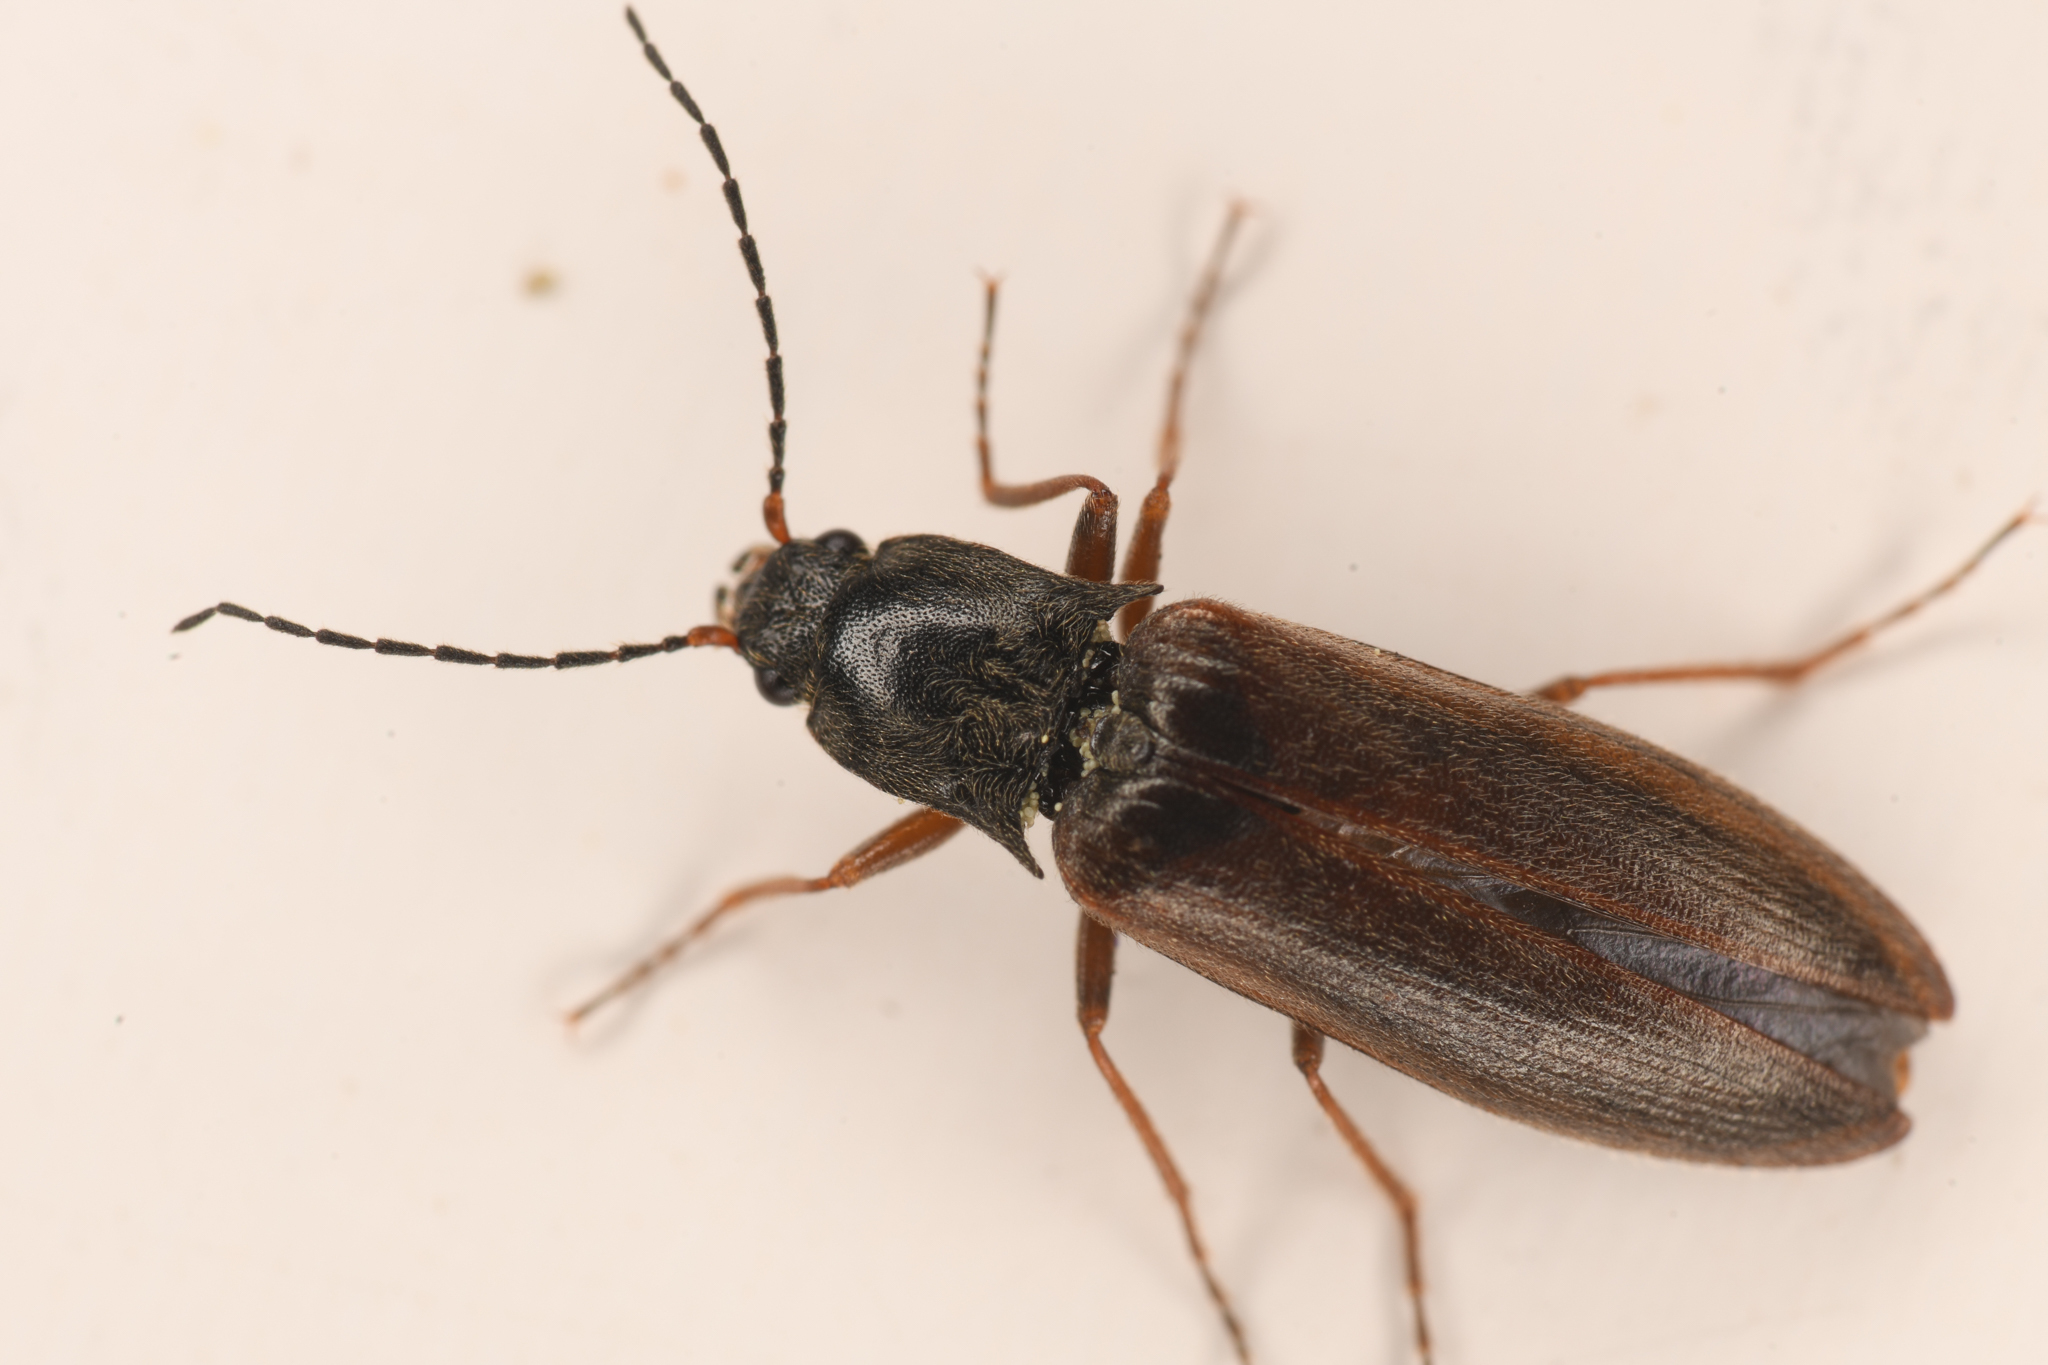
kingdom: Animalia
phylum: Arthropoda
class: Insecta
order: Coleoptera
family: Elateridae
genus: Metanomus
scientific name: Metanomus insidiosus
